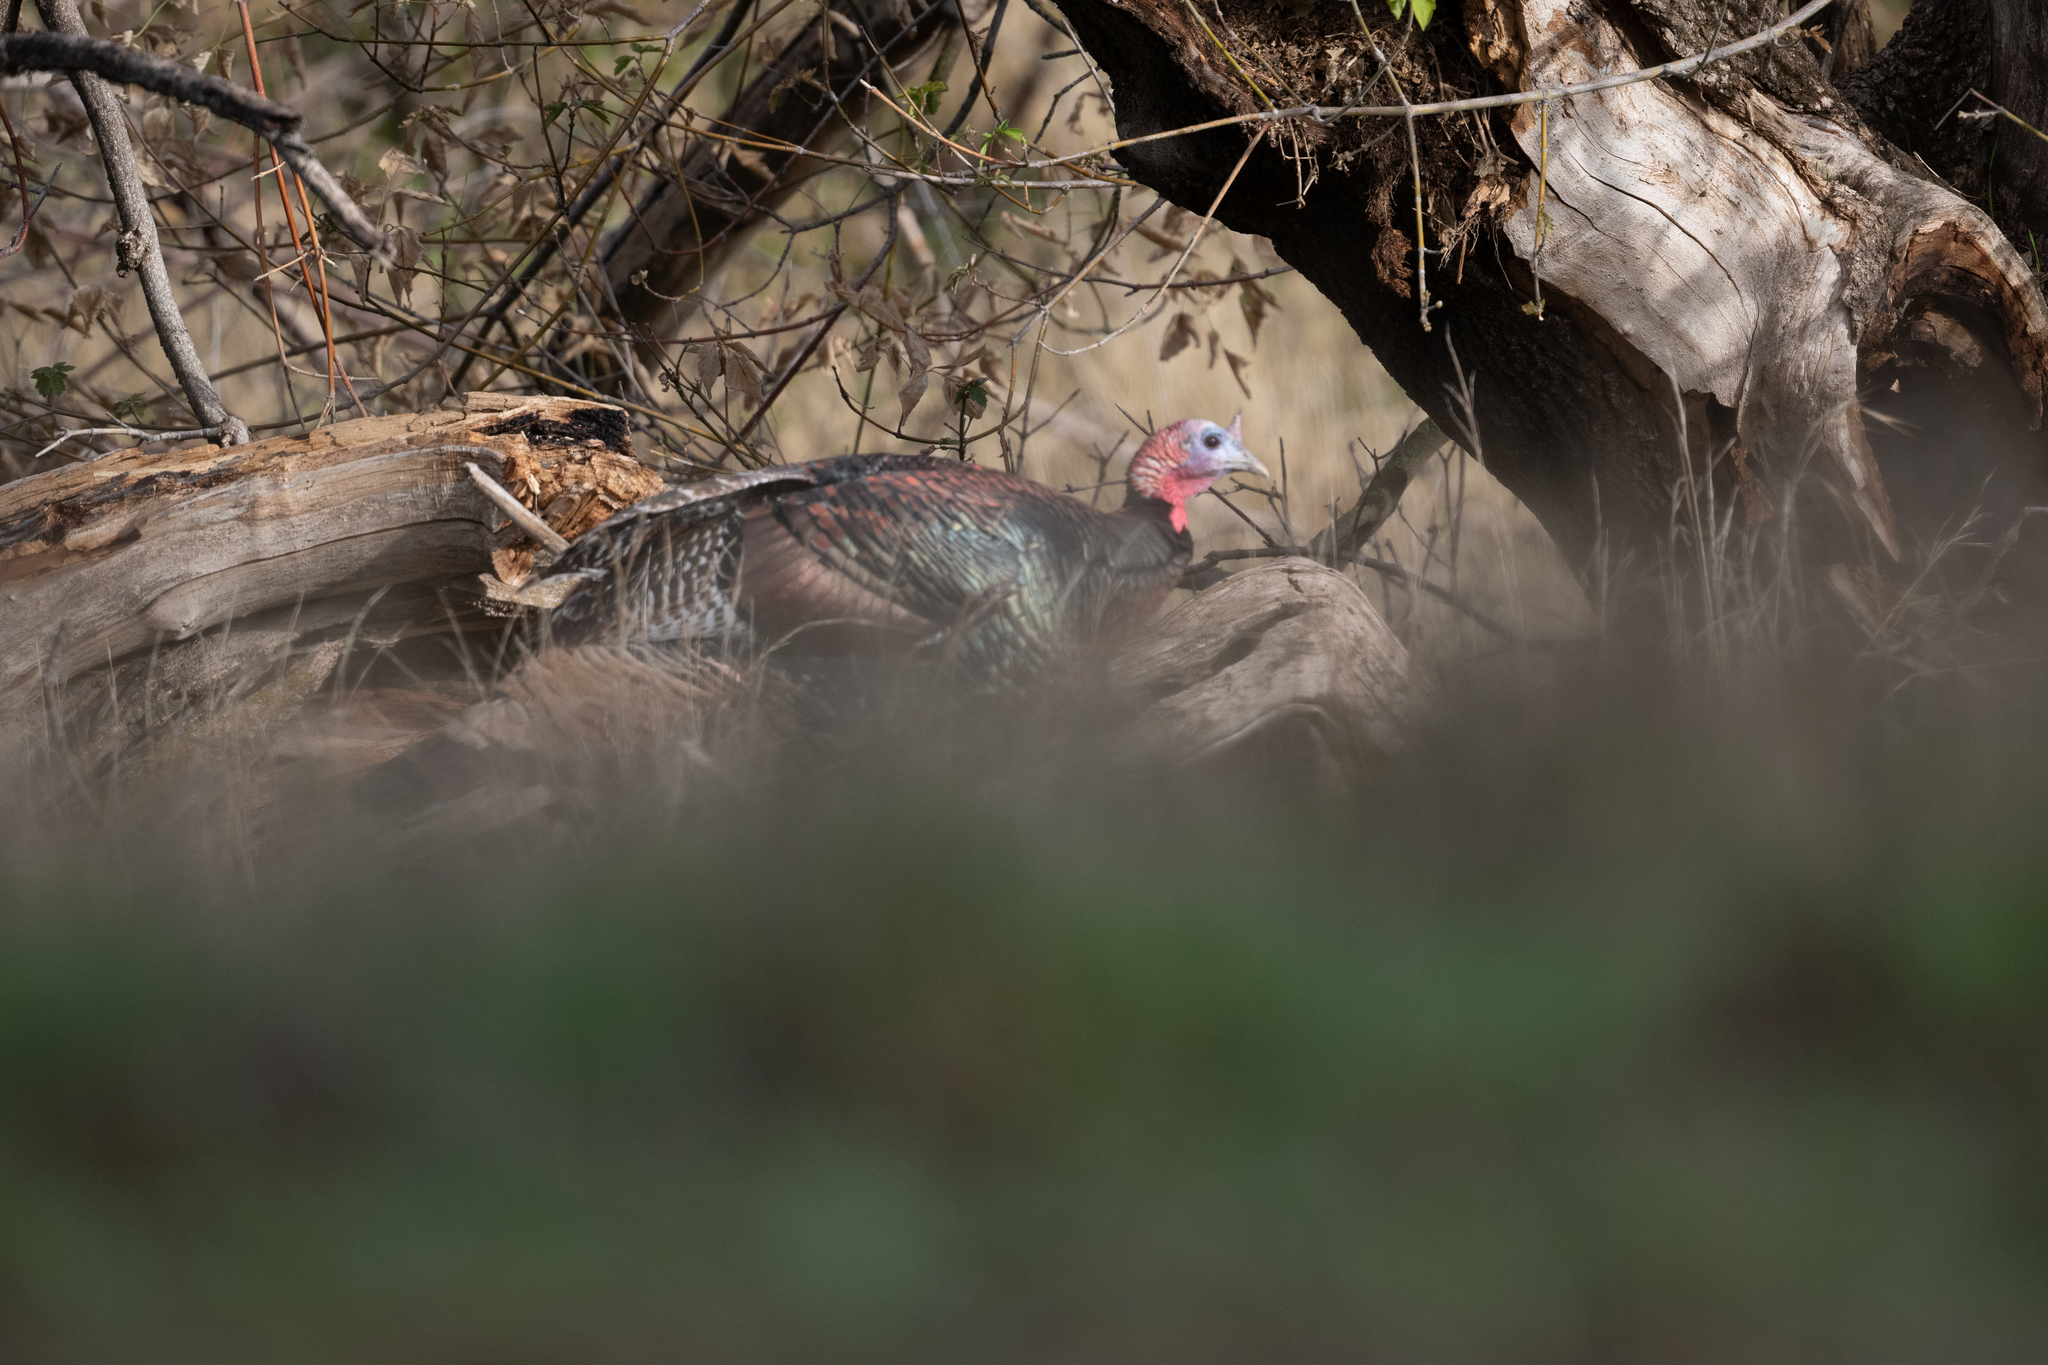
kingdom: Animalia
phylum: Chordata
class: Aves
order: Galliformes
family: Phasianidae
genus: Meleagris
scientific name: Meleagris gallopavo
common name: Wild turkey
